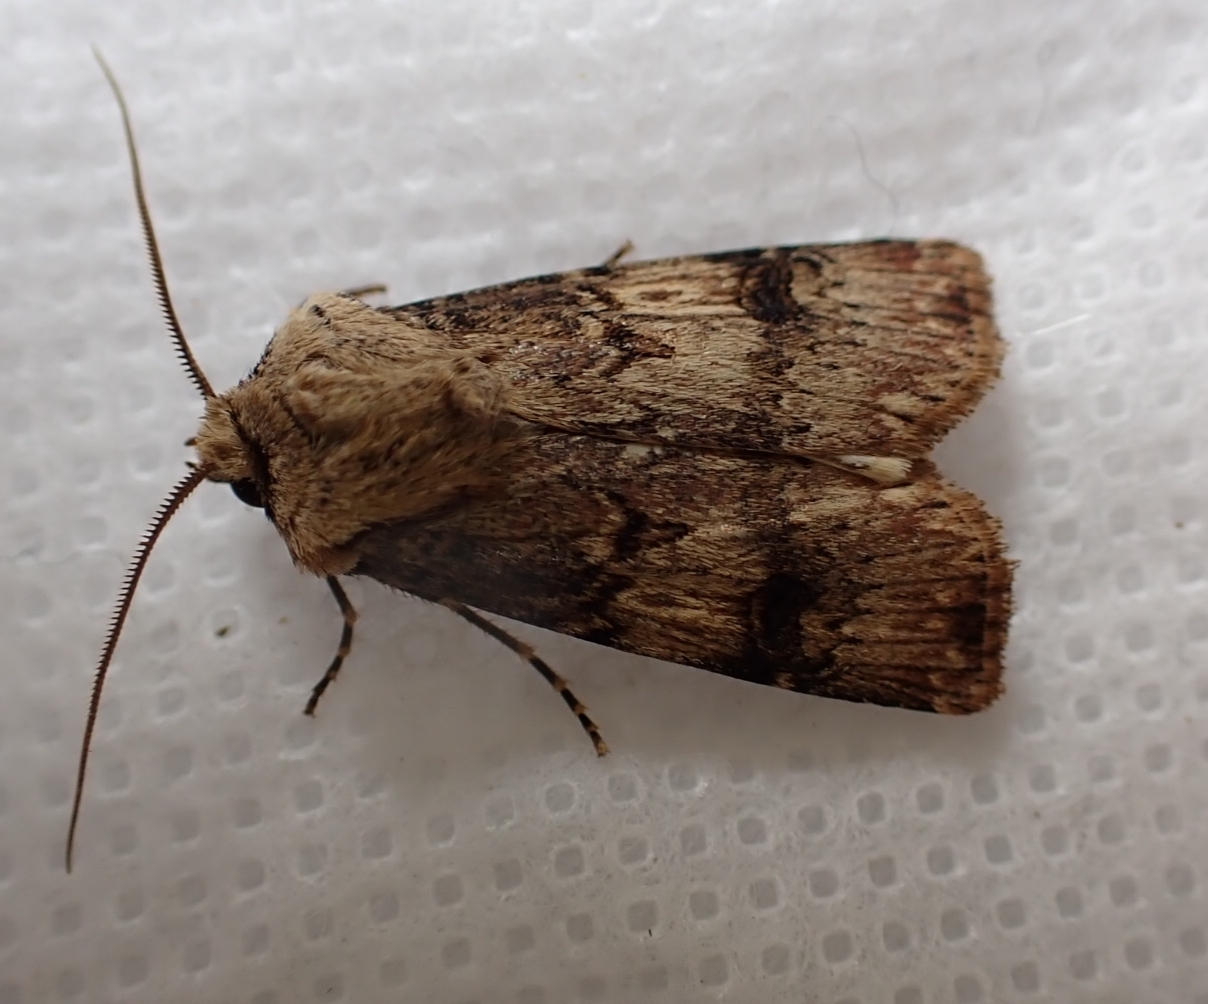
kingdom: Animalia
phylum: Arthropoda
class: Insecta
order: Lepidoptera
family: Noctuidae
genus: Agrotis
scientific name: Agrotis puta
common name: Shuttle-shaped dart
